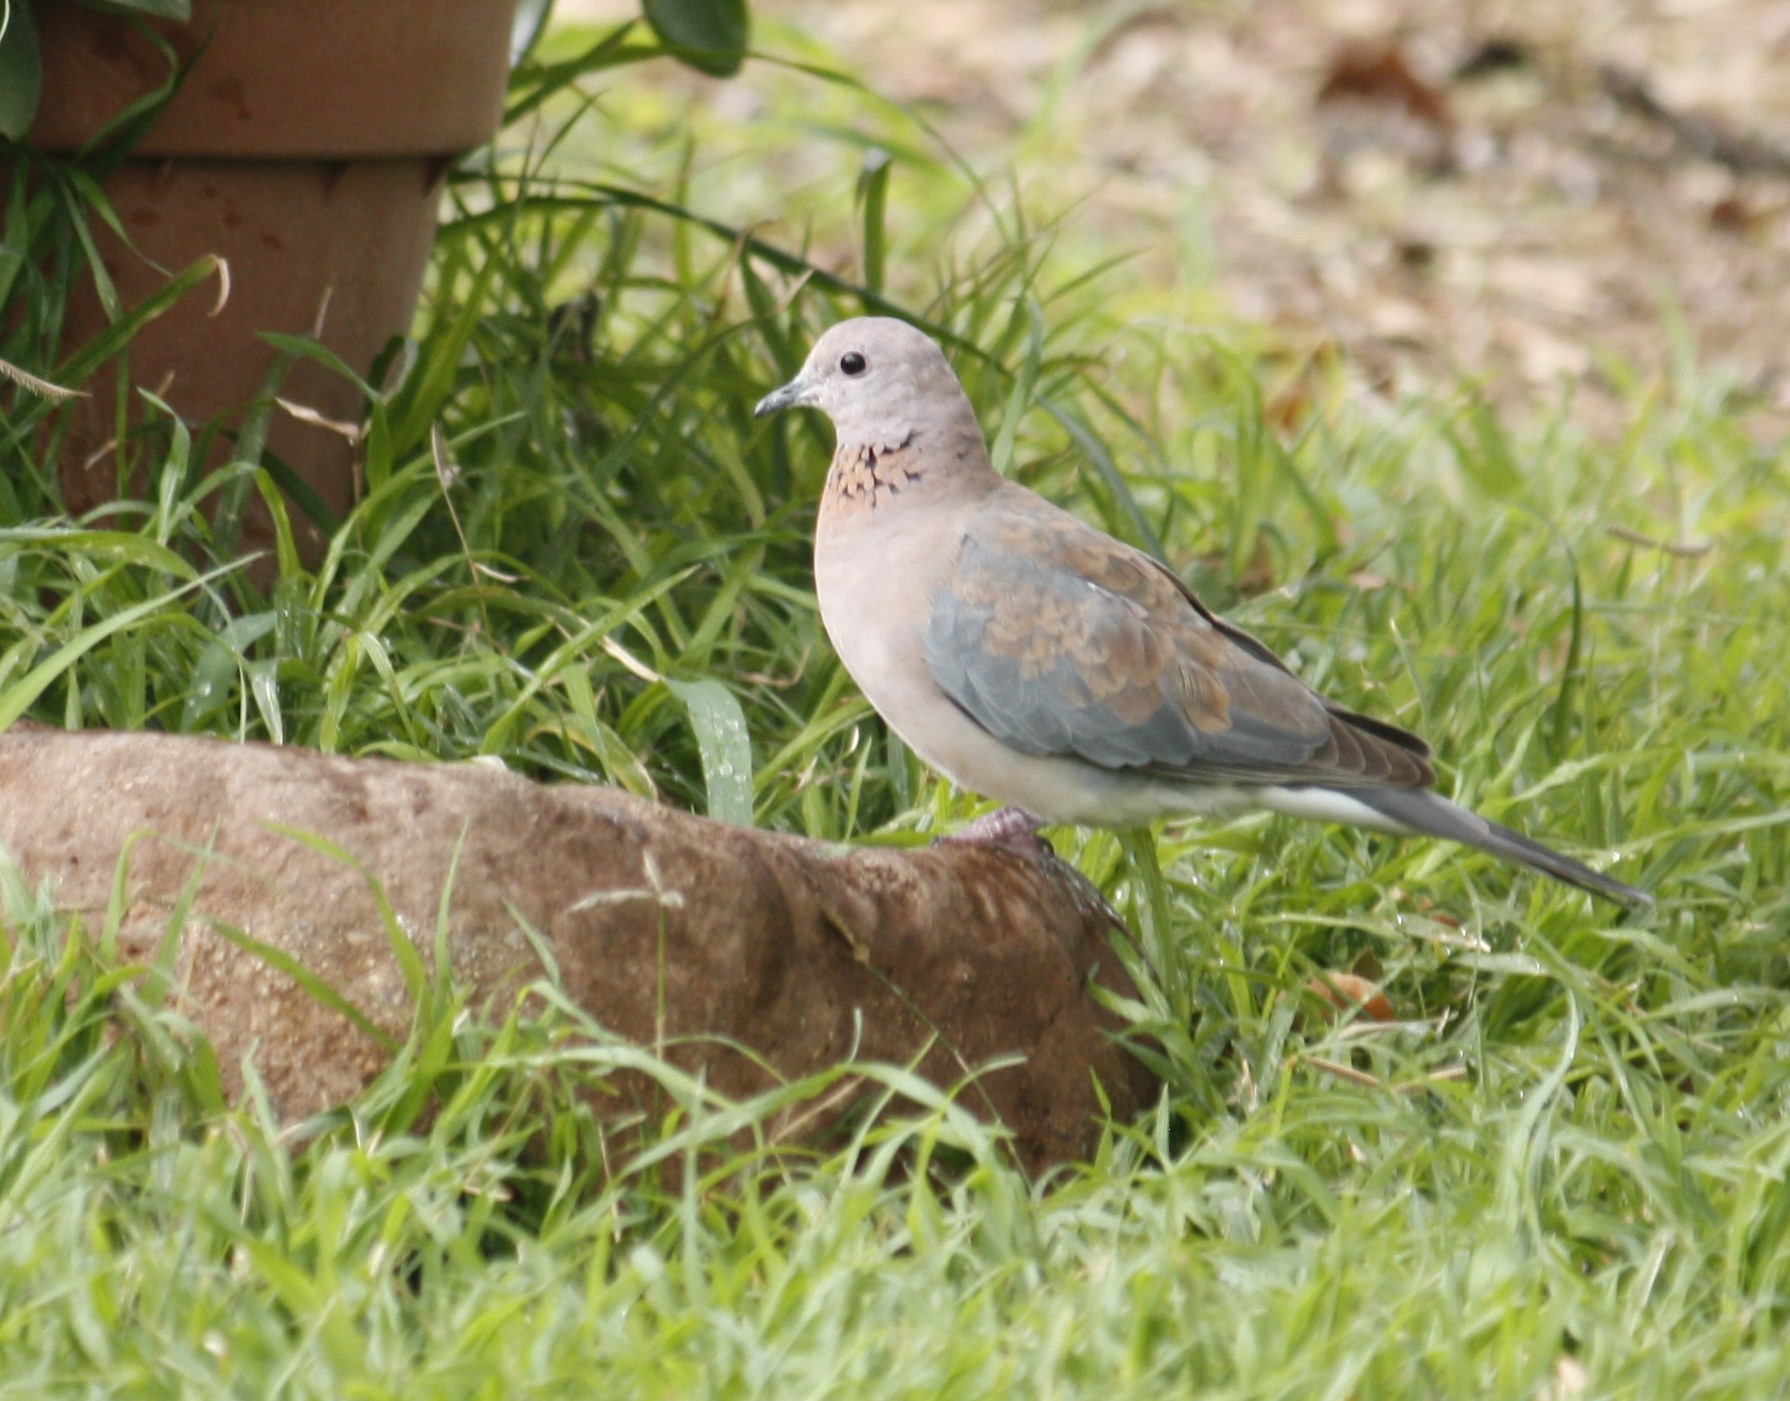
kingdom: Animalia
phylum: Chordata
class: Aves
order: Columbiformes
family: Columbidae
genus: Spilopelia
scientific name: Spilopelia senegalensis
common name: Laughing dove
